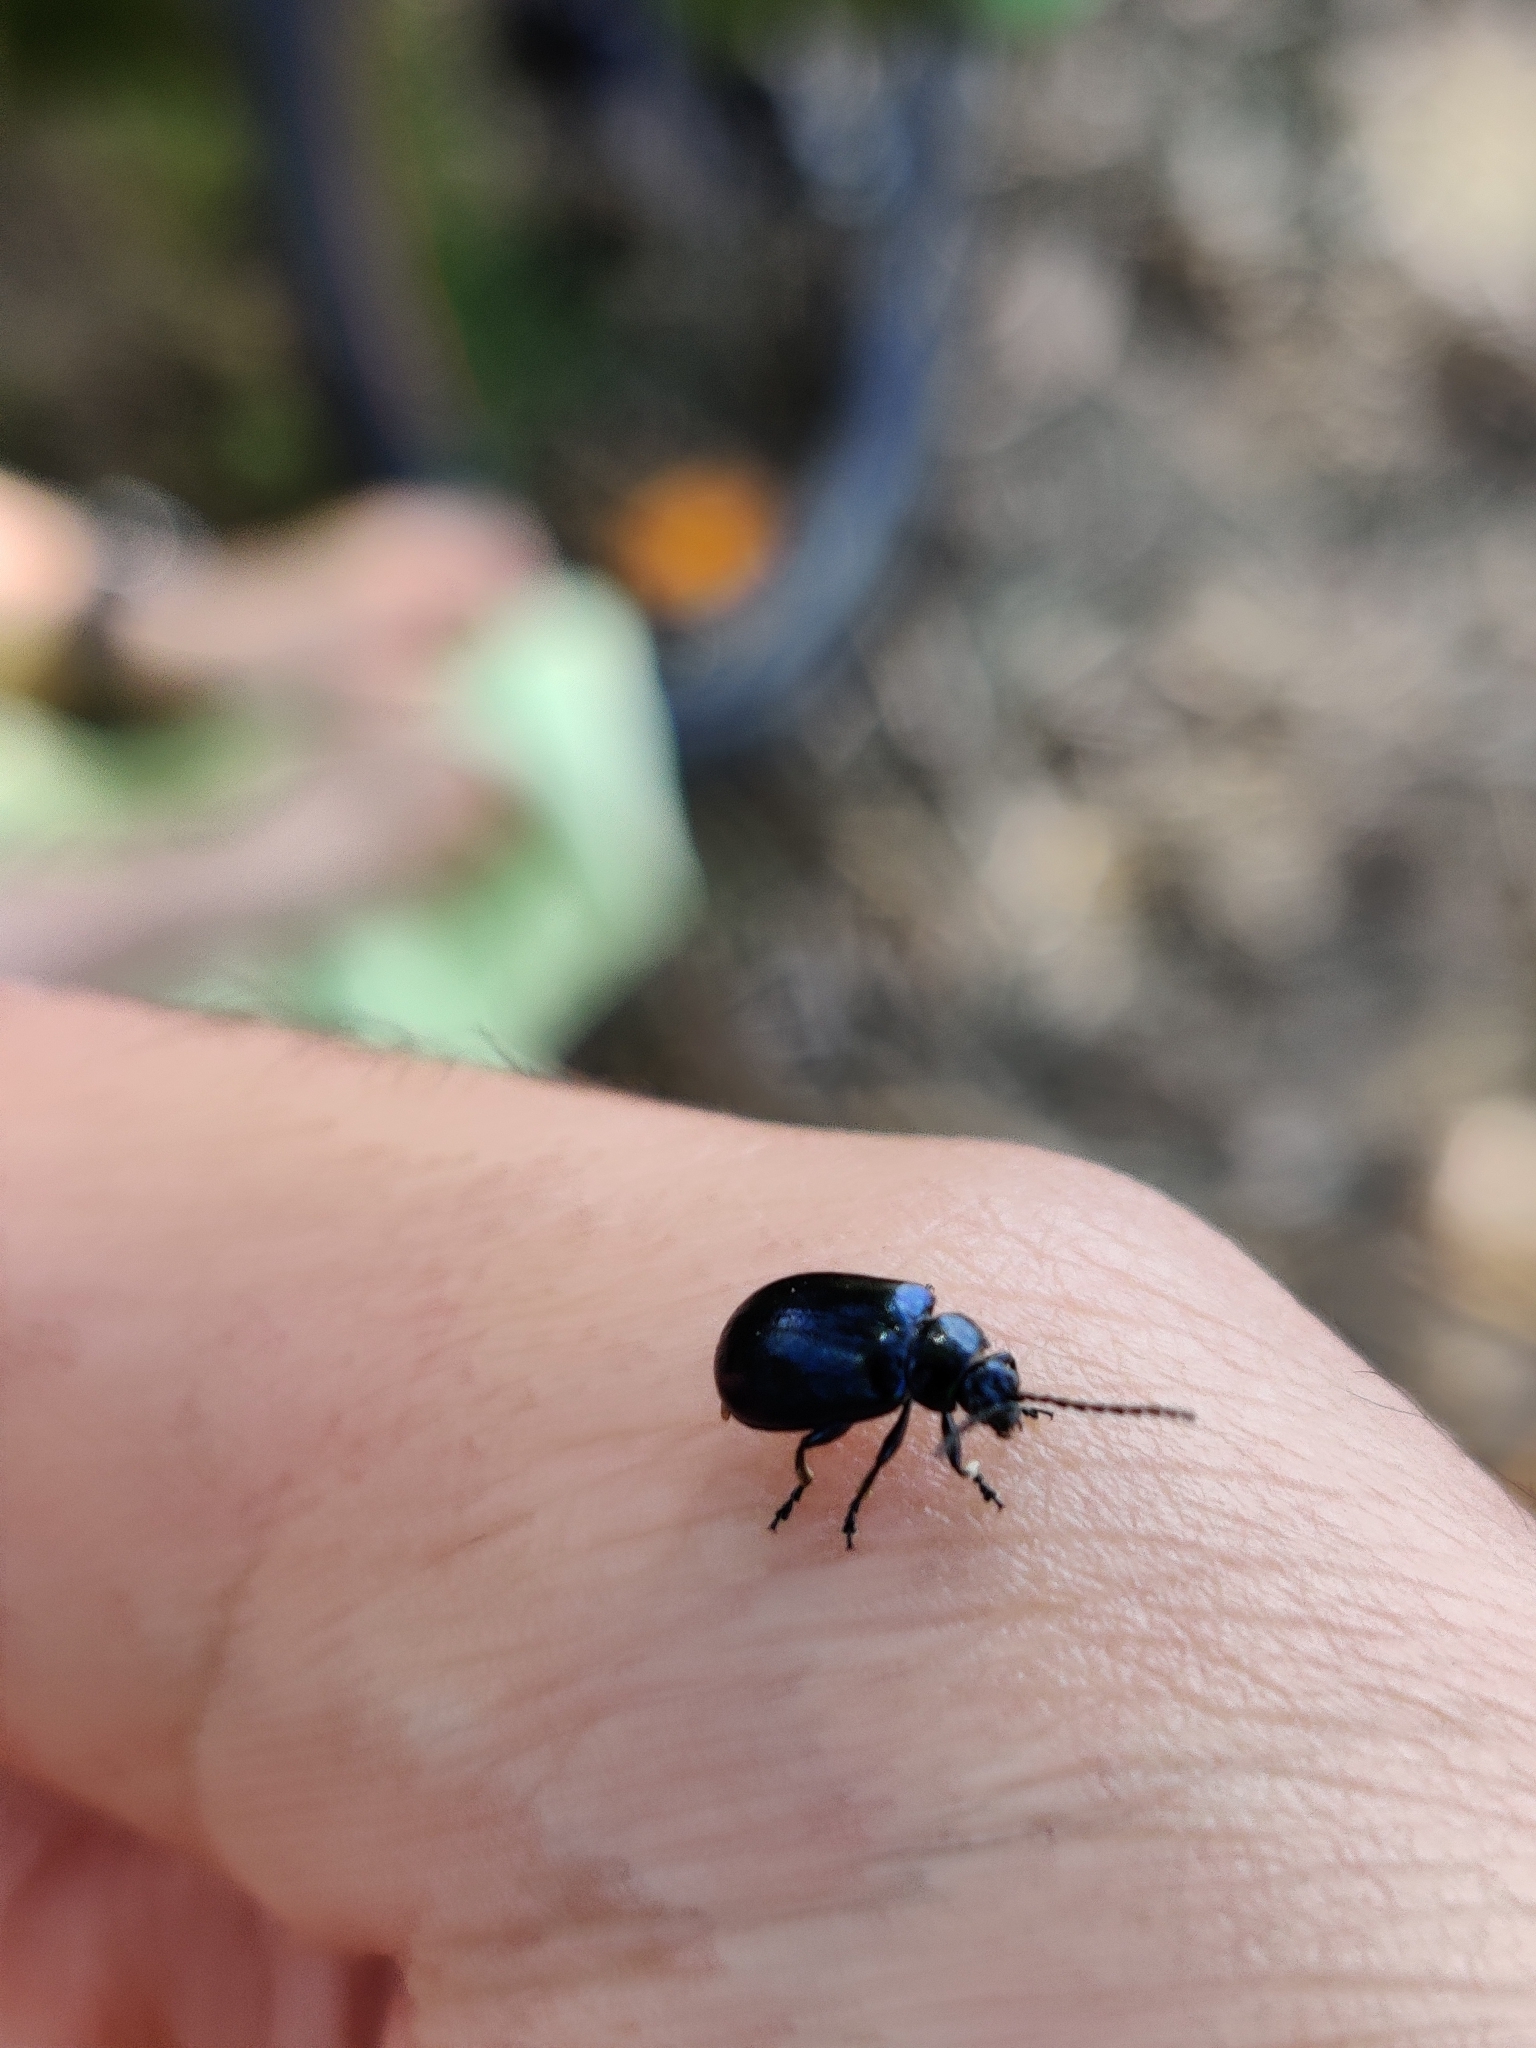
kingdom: Animalia
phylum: Arthropoda
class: Insecta
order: Coleoptera
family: Chrysomelidae
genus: Agelastica
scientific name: Agelastica alni
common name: Alder leaf beetle
